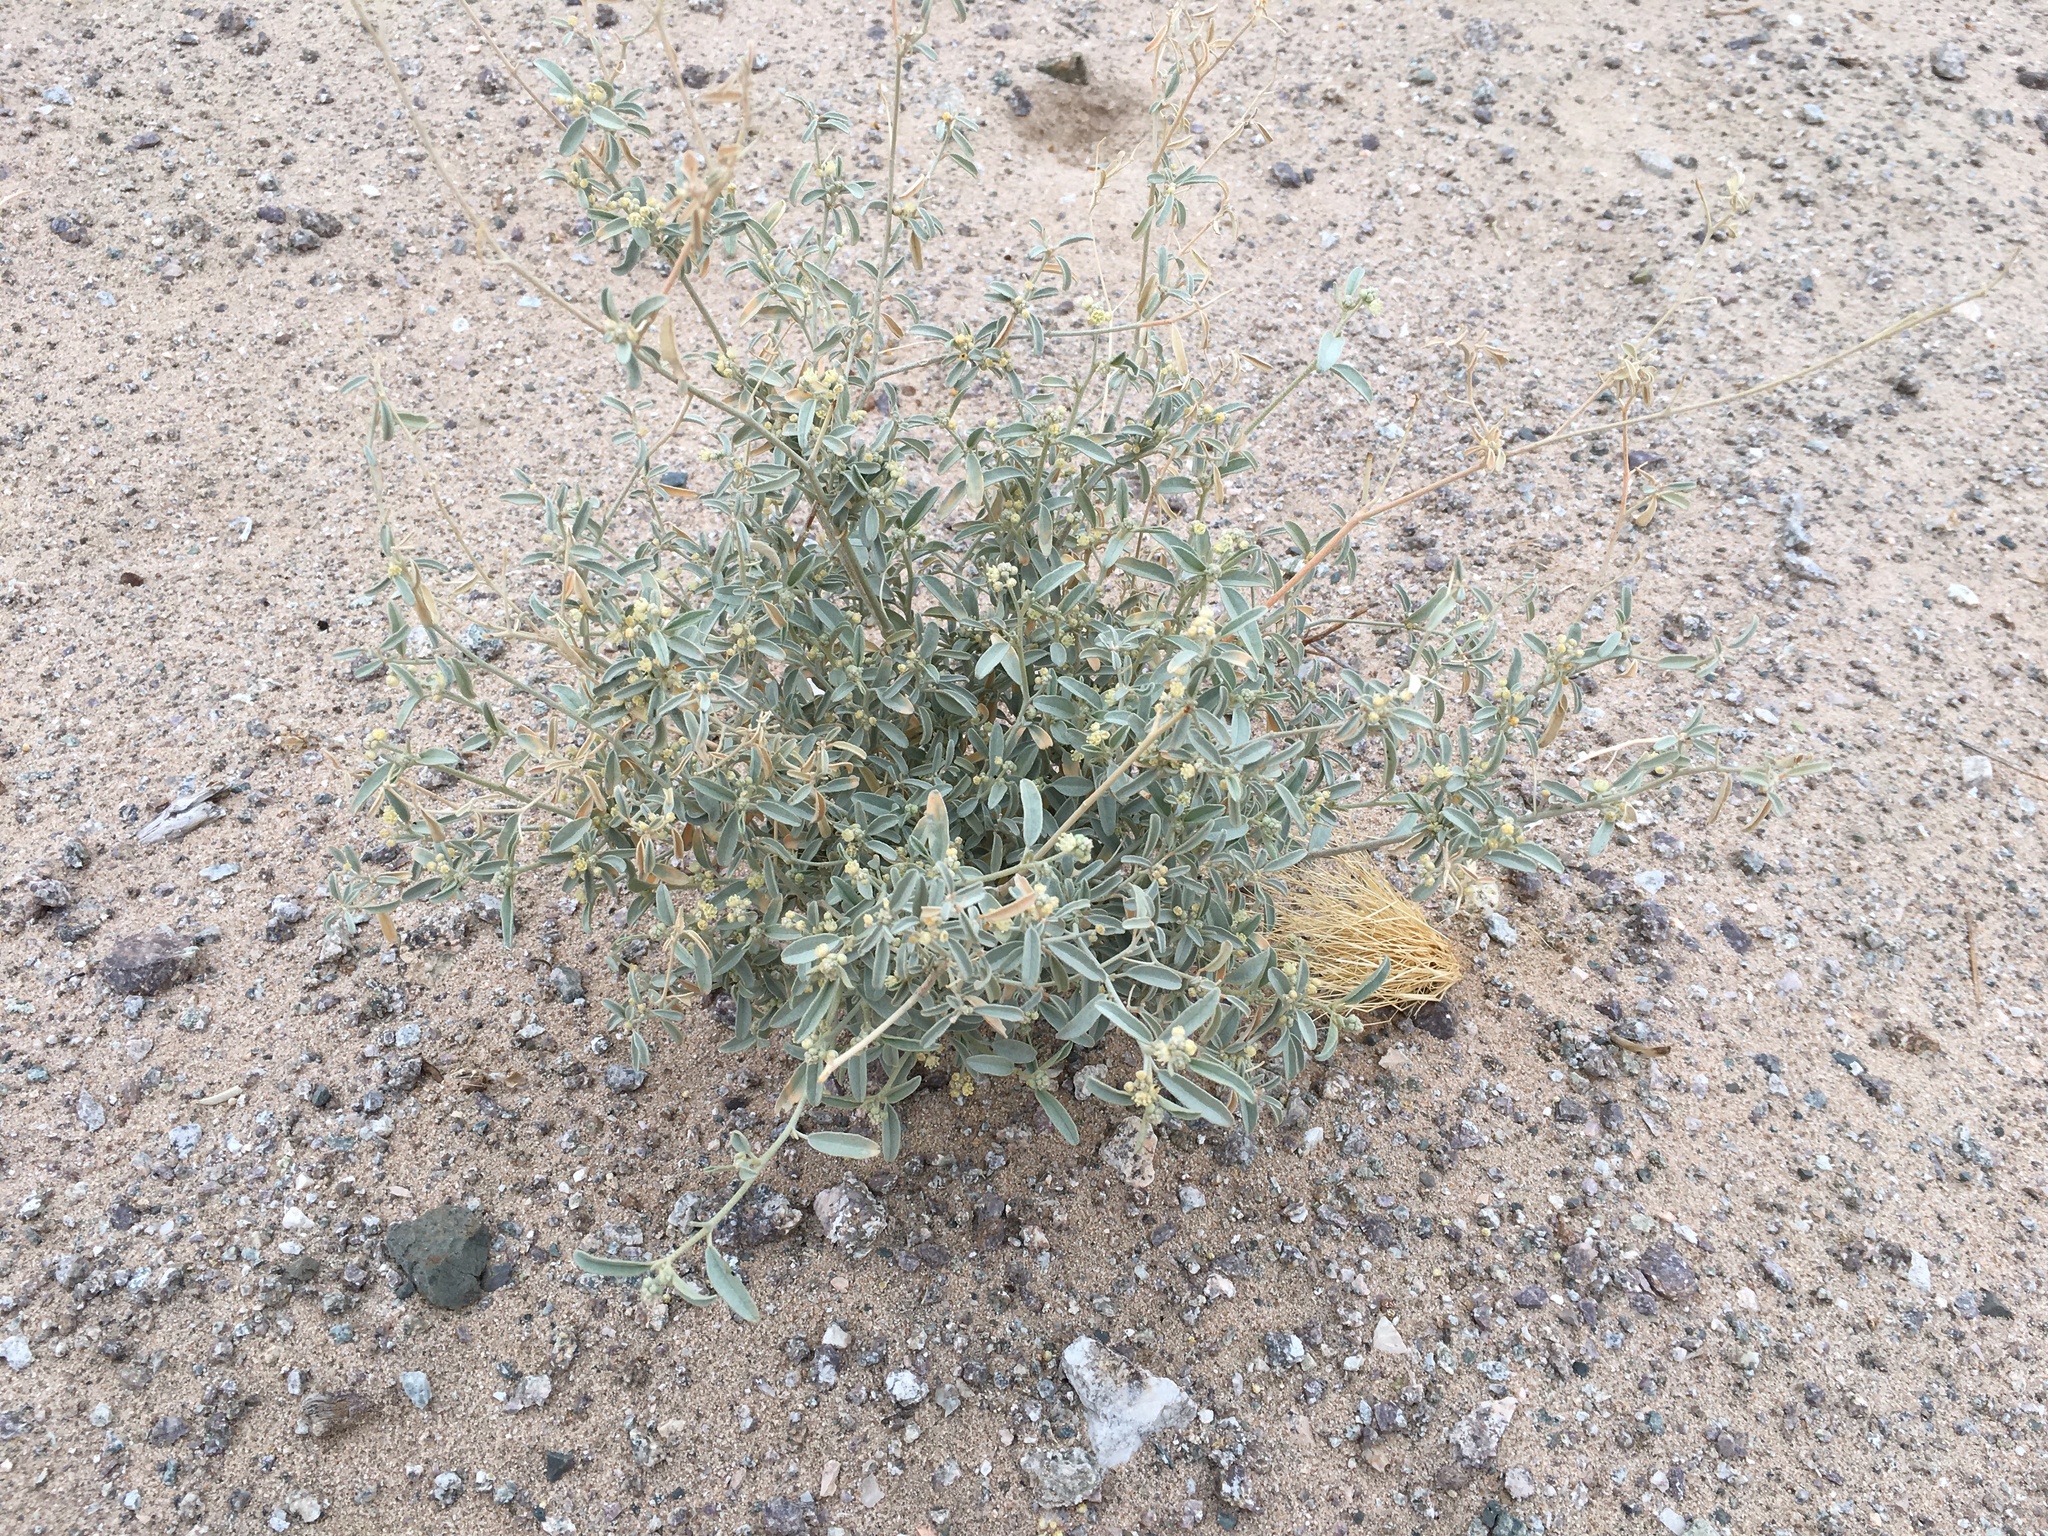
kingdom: Plantae
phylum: Tracheophyta
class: Magnoliopsida
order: Malpighiales
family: Euphorbiaceae
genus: Croton
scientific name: Croton californicus
